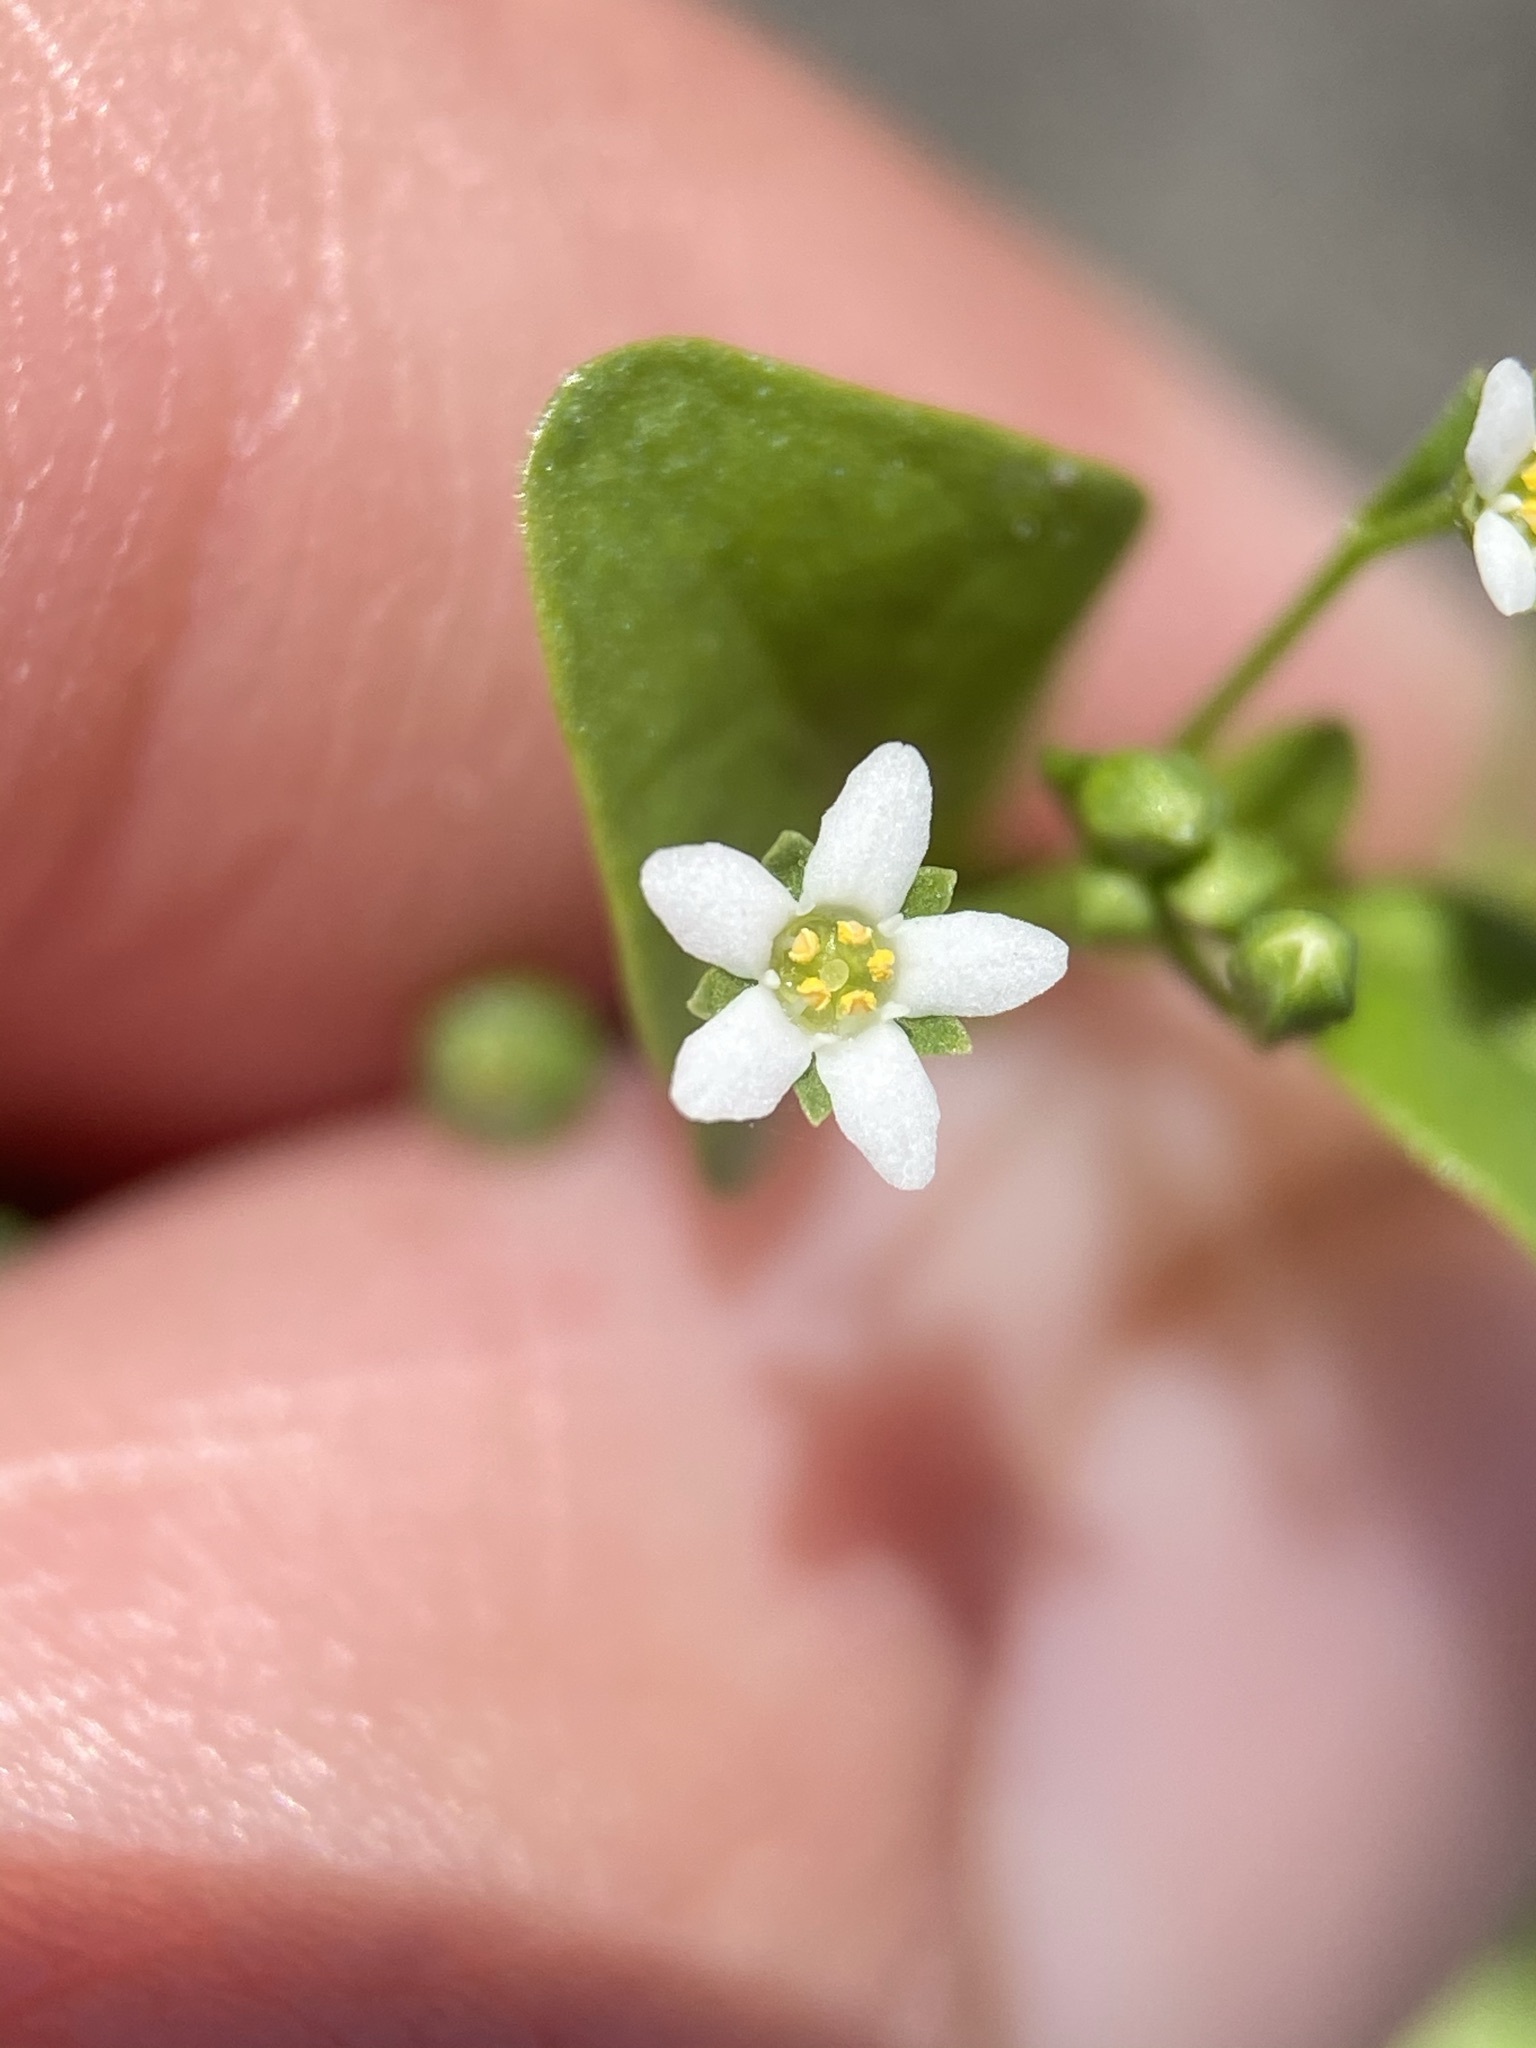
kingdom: Plantae
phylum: Tracheophyta
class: Magnoliopsida
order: Ericales
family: Primulaceae
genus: Samolus
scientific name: Samolus parviflorus
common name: False water pimpernel
